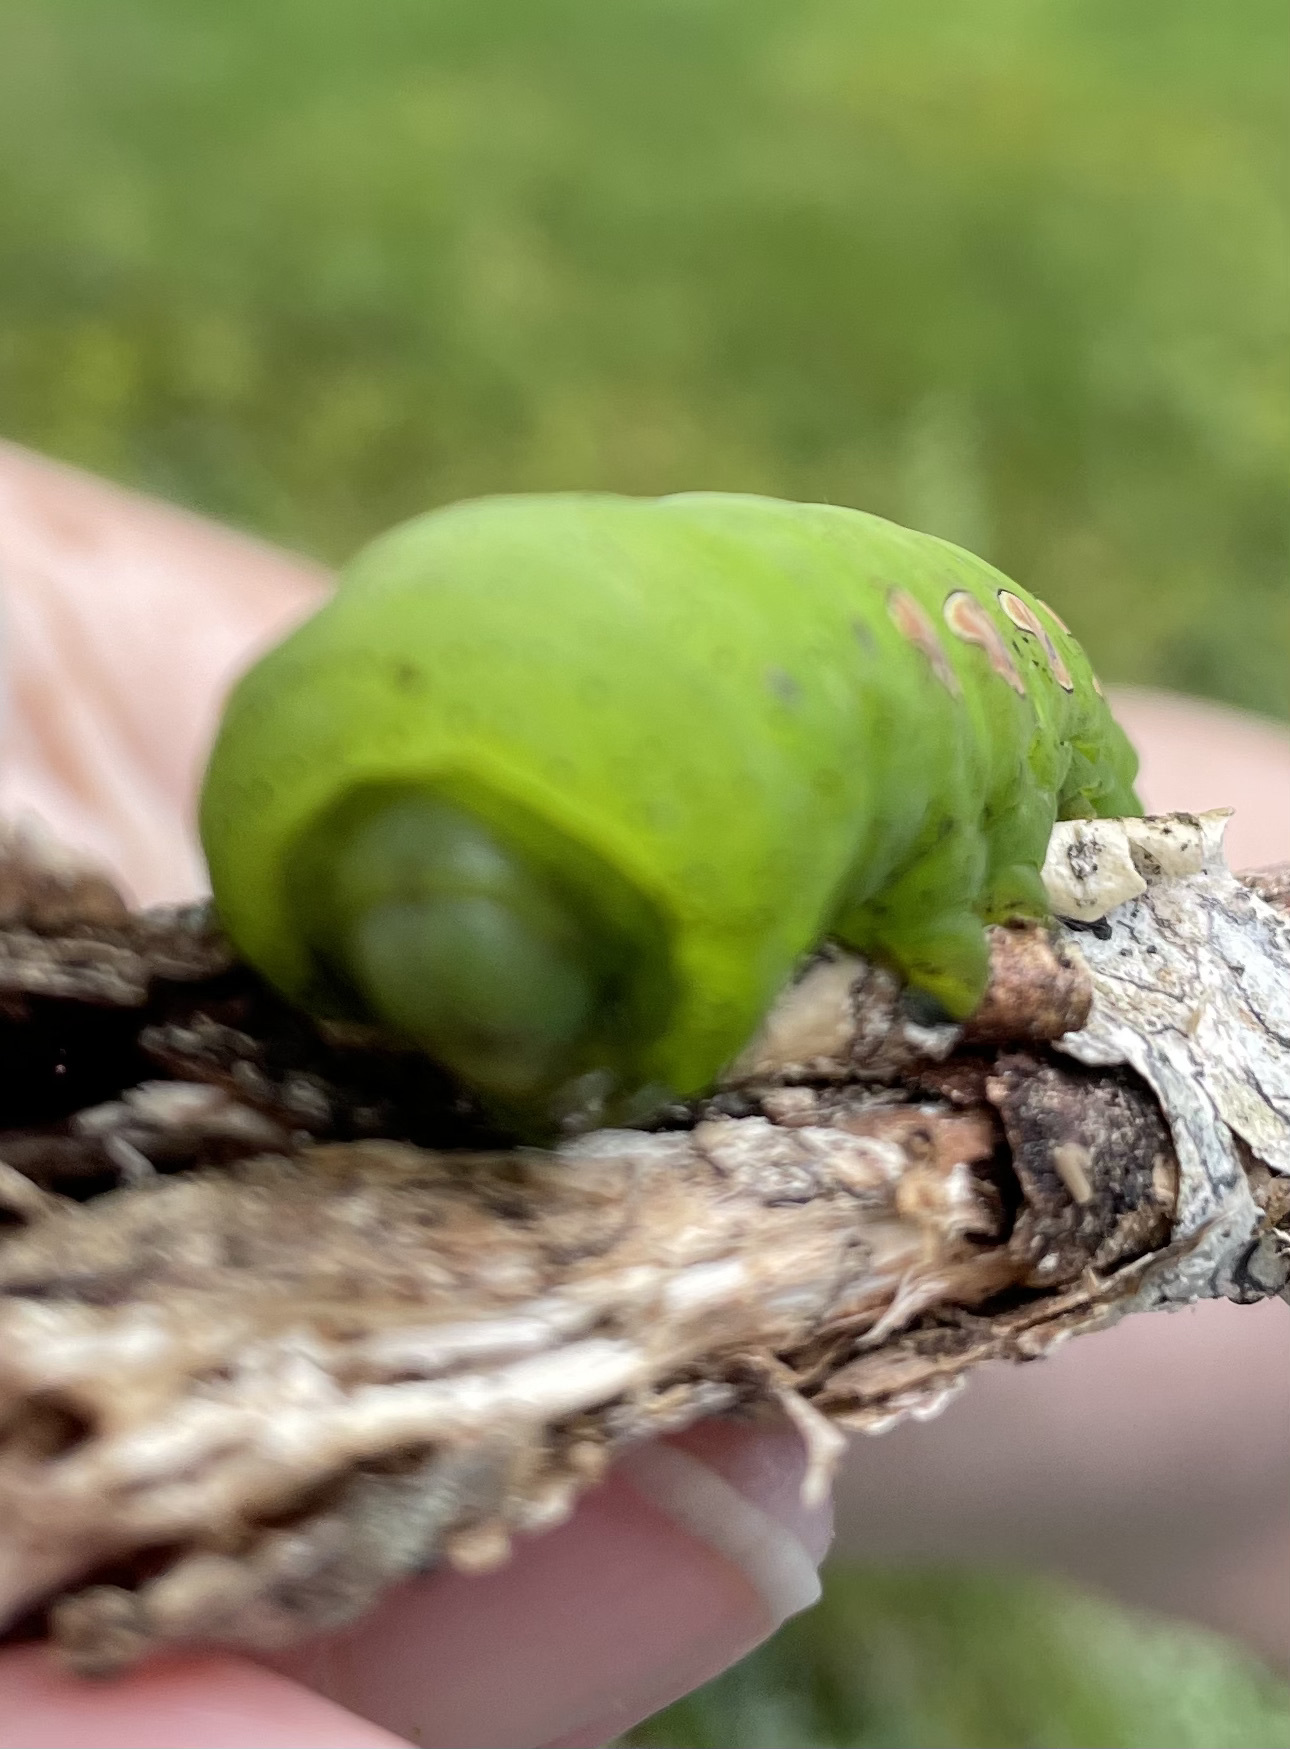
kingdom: Animalia
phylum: Arthropoda
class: Insecta
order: Lepidoptera
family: Sphingidae
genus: Eumorpha
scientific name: Eumorpha pandorus
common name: Pandora sphinx
